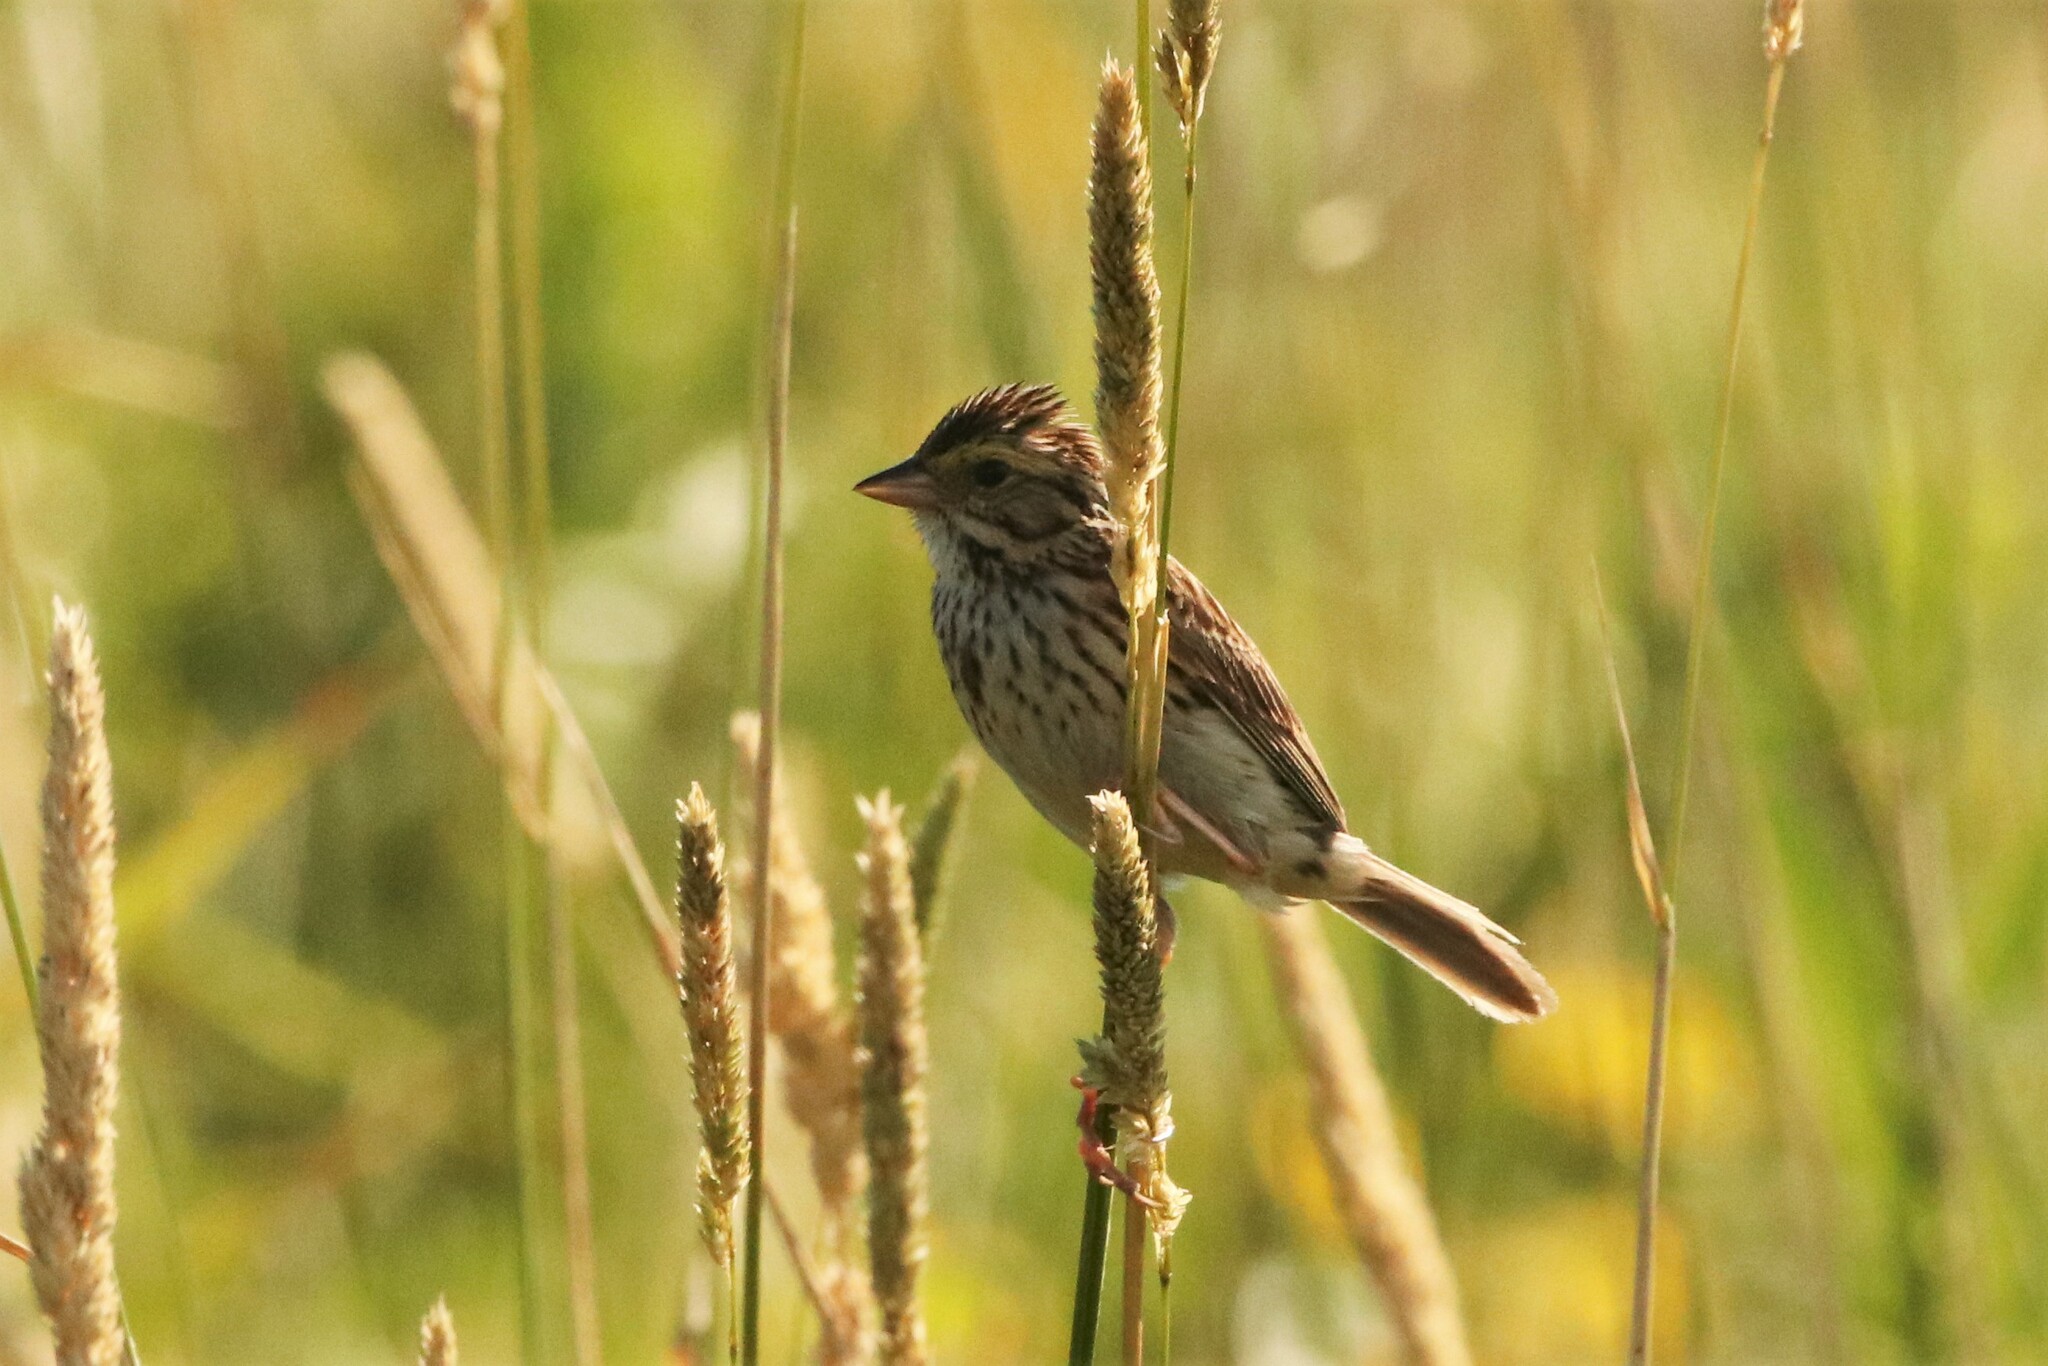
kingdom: Animalia
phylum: Chordata
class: Aves
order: Passeriformes
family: Passerellidae
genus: Passerculus
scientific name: Passerculus sandwichensis
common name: Savannah sparrow
